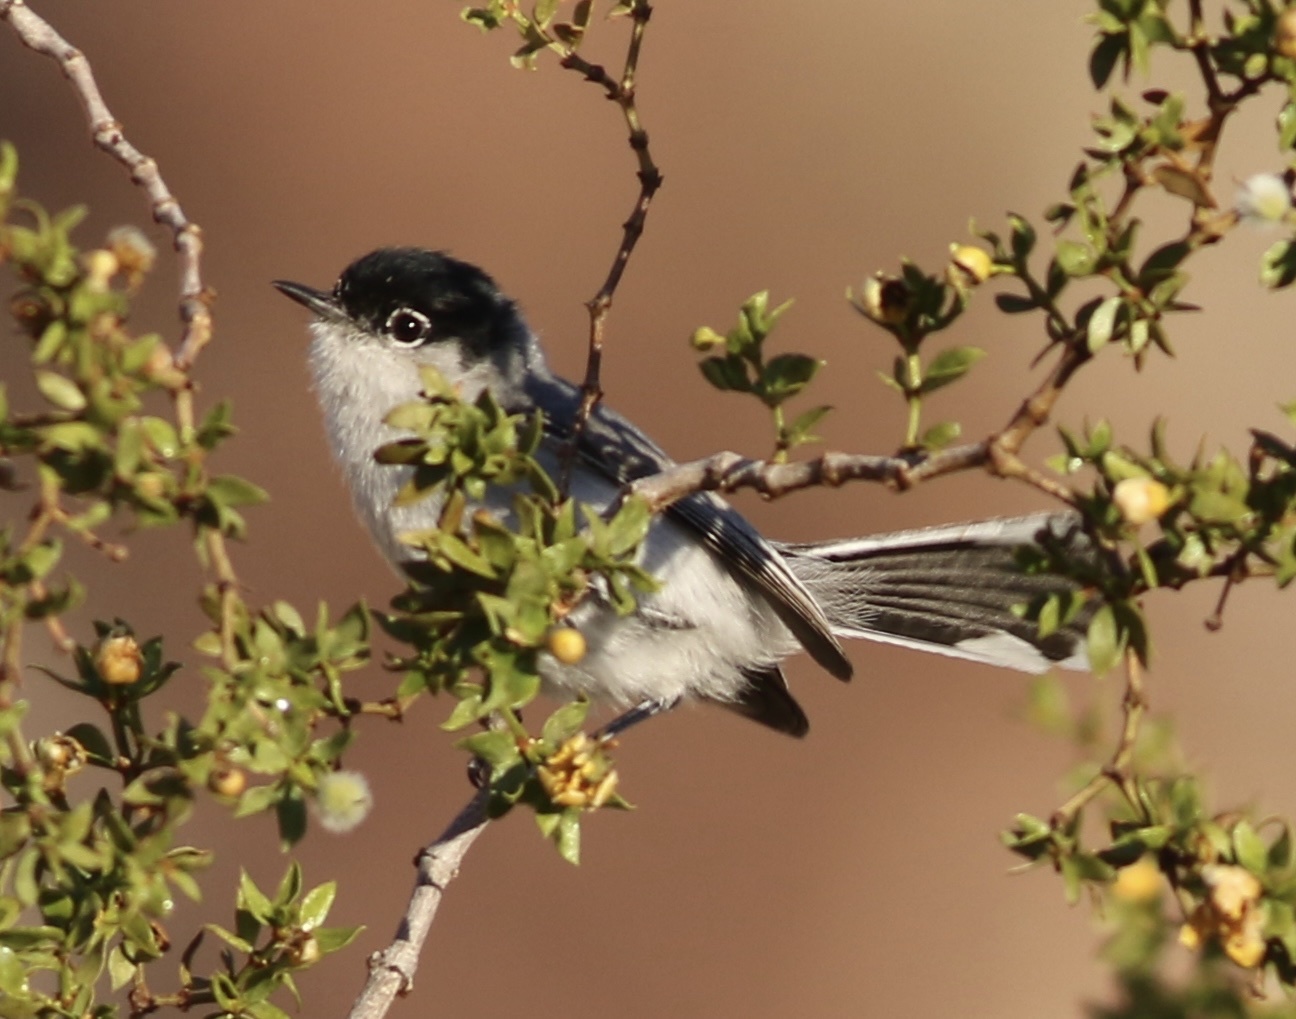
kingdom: Animalia
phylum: Chordata
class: Aves
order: Passeriformes
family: Polioptilidae
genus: Polioptila
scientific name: Polioptila melanura
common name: Black-tailed gnatcatcher
